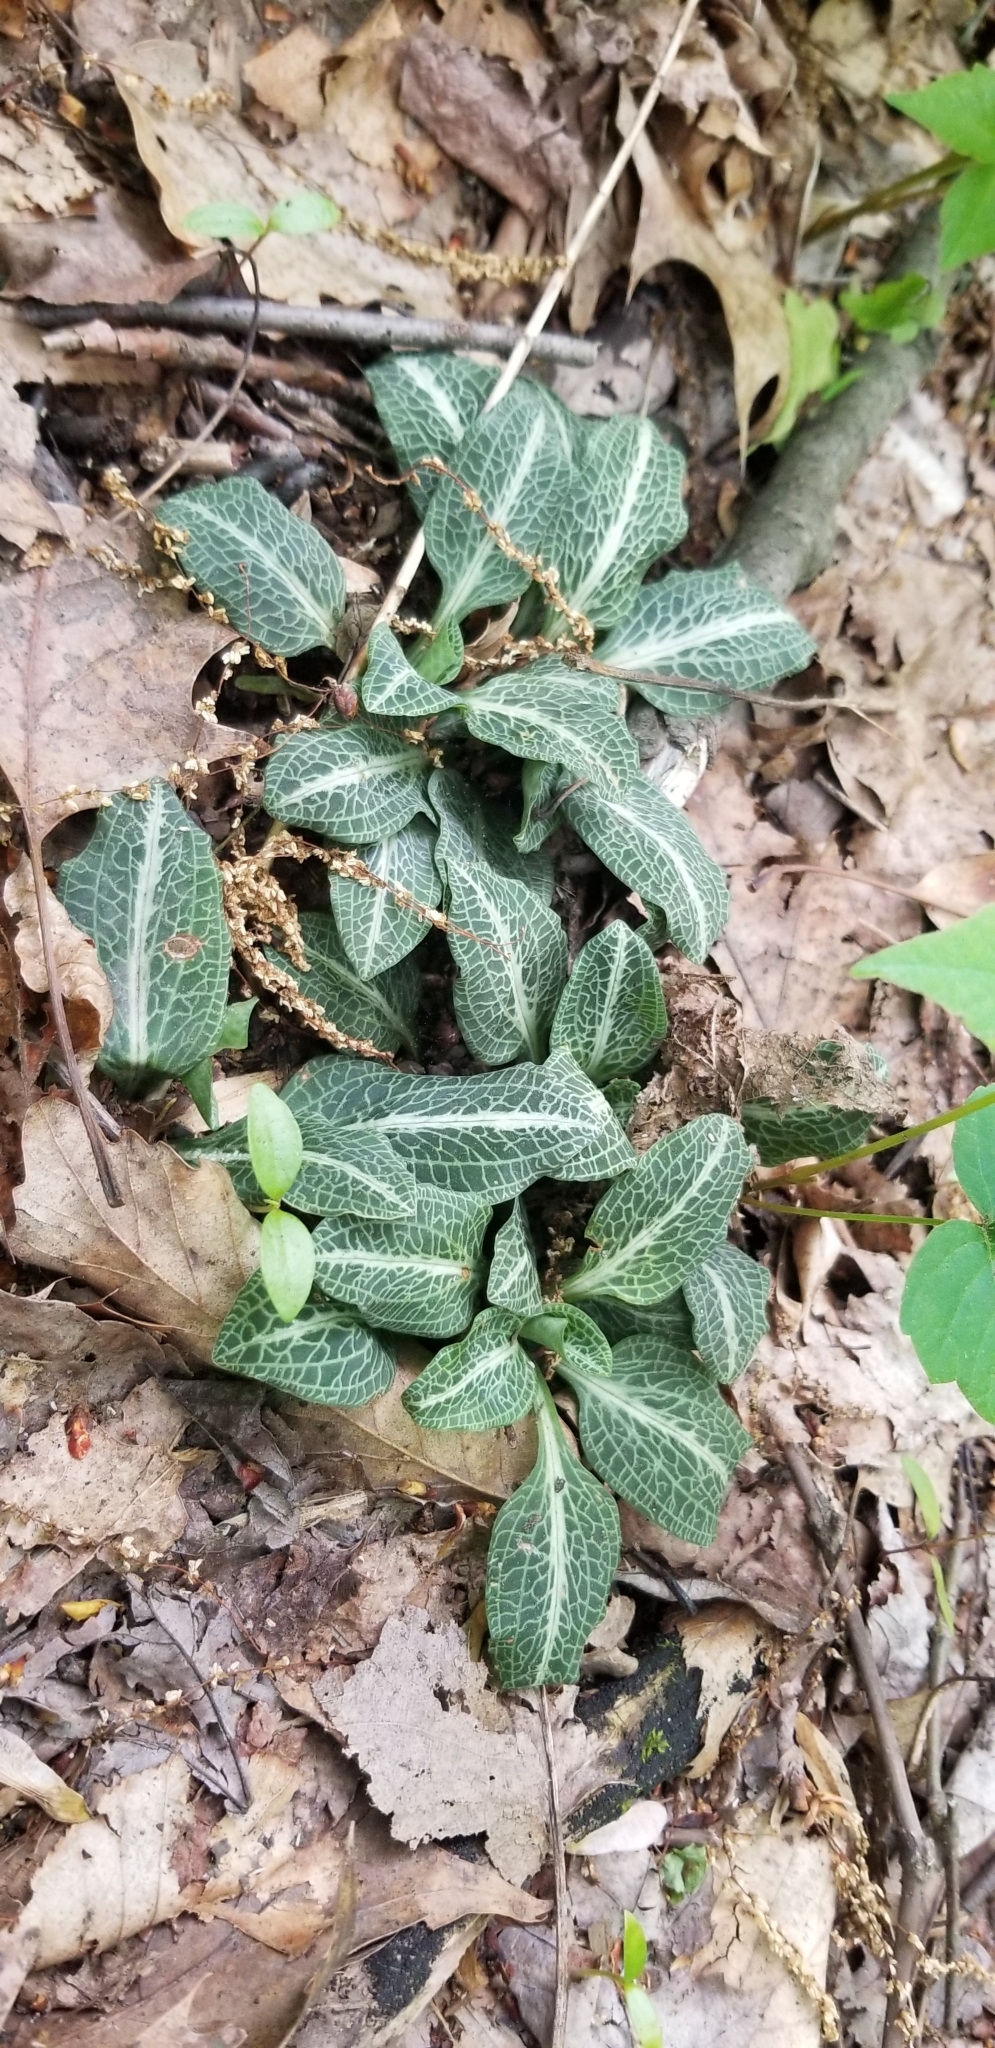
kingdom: Plantae
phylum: Tracheophyta
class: Liliopsida
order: Asparagales
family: Orchidaceae
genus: Goodyera
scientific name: Goodyera pubescens
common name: Downy rattlesnake-plantain
